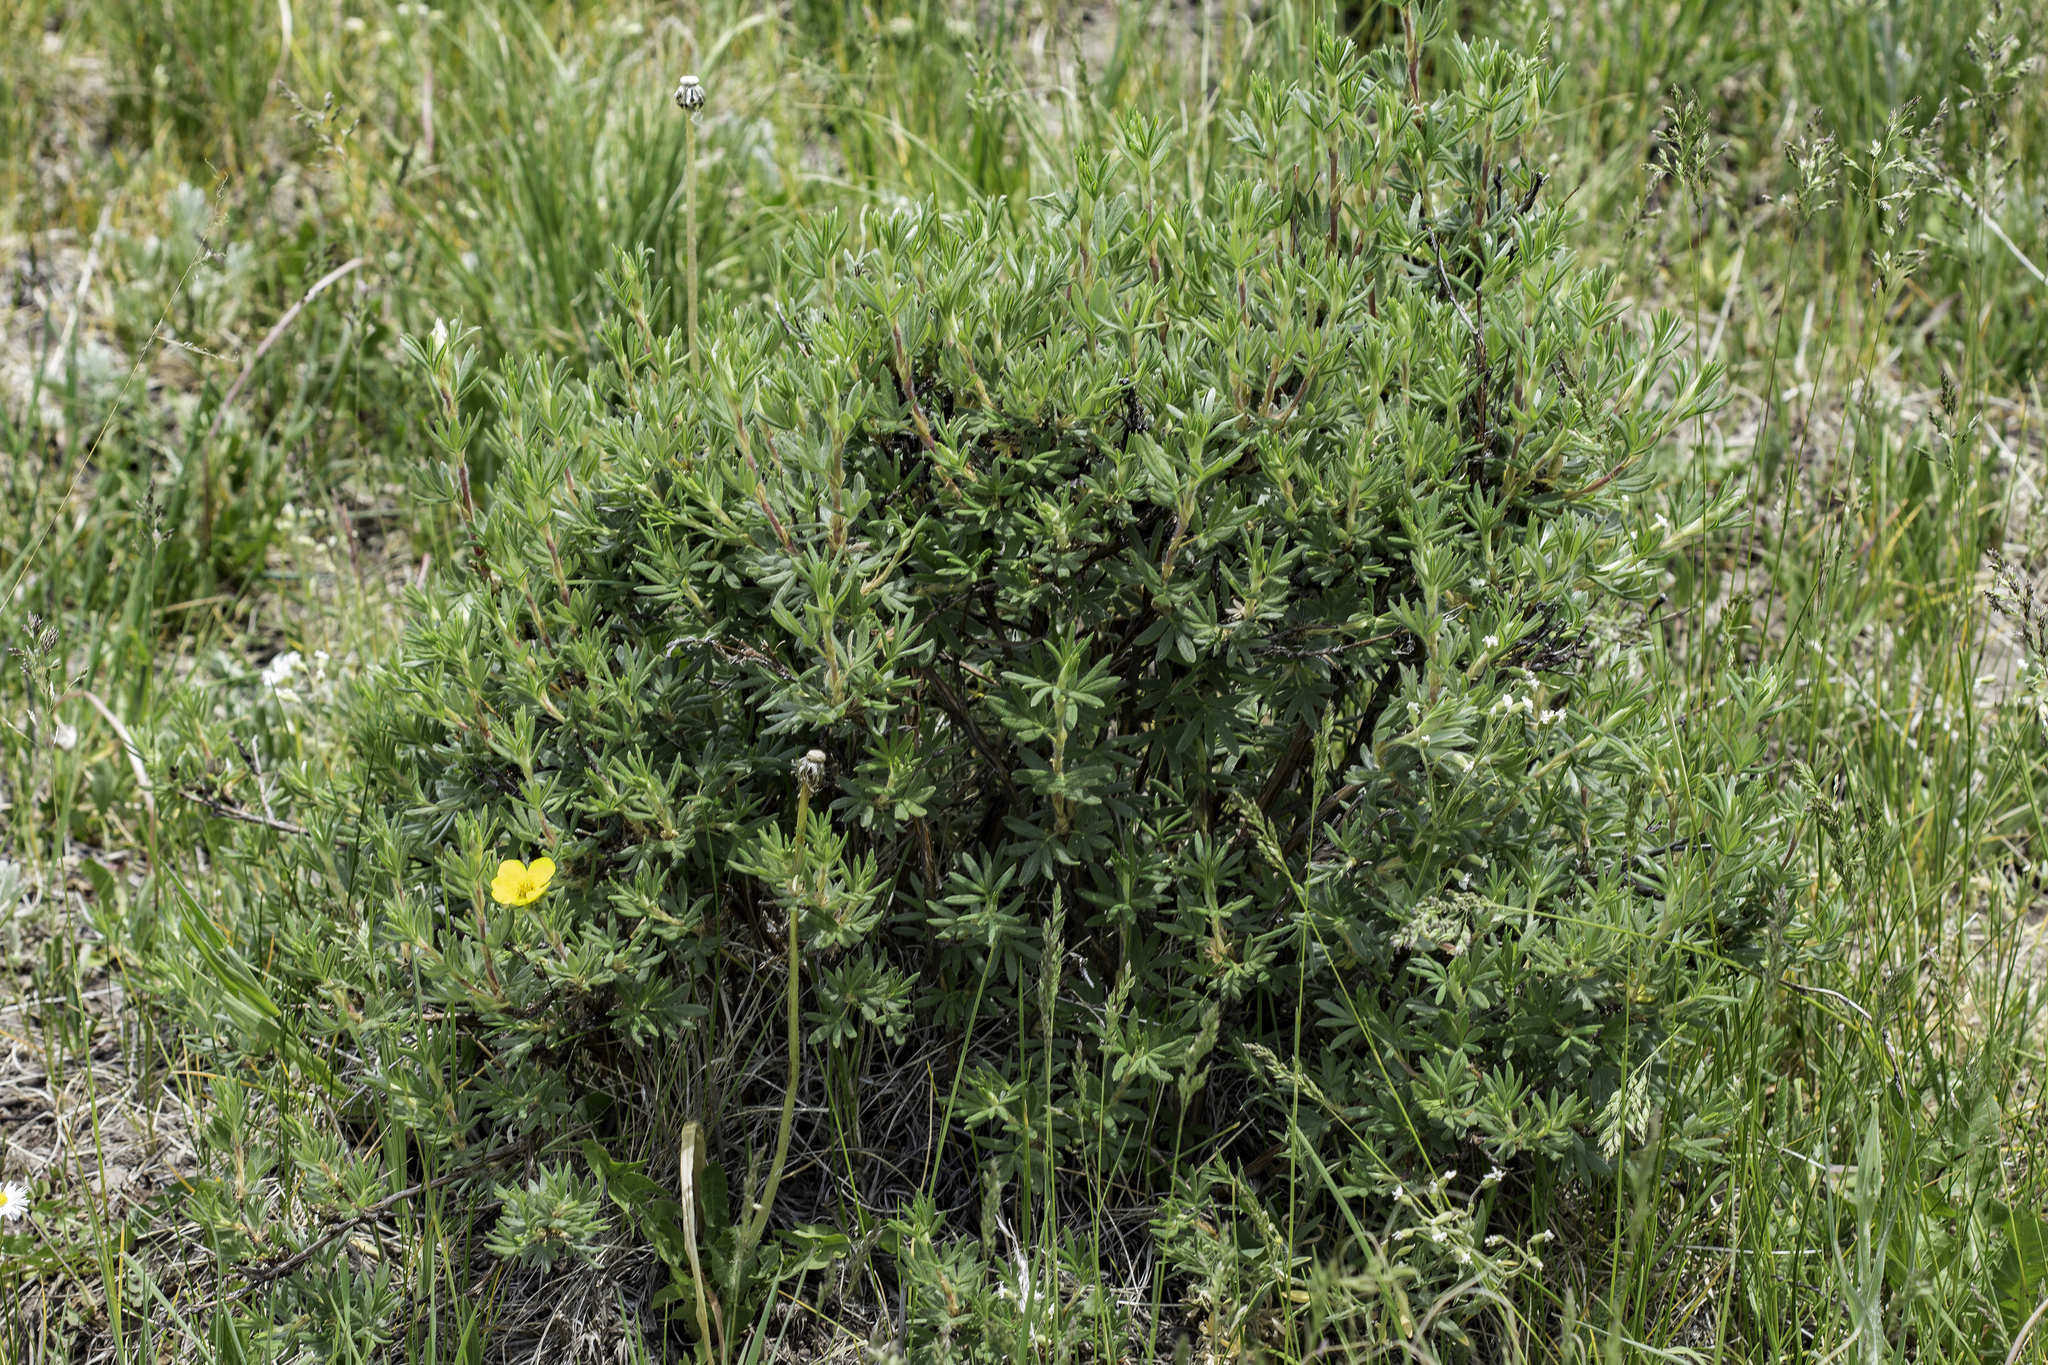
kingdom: Plantae
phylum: Tracheophyta
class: Magnoliopsida
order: Rosales
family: Rosaceae
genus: Dasiphora
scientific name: Dasiphora fruticosa
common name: Shrubby cinquefoil
